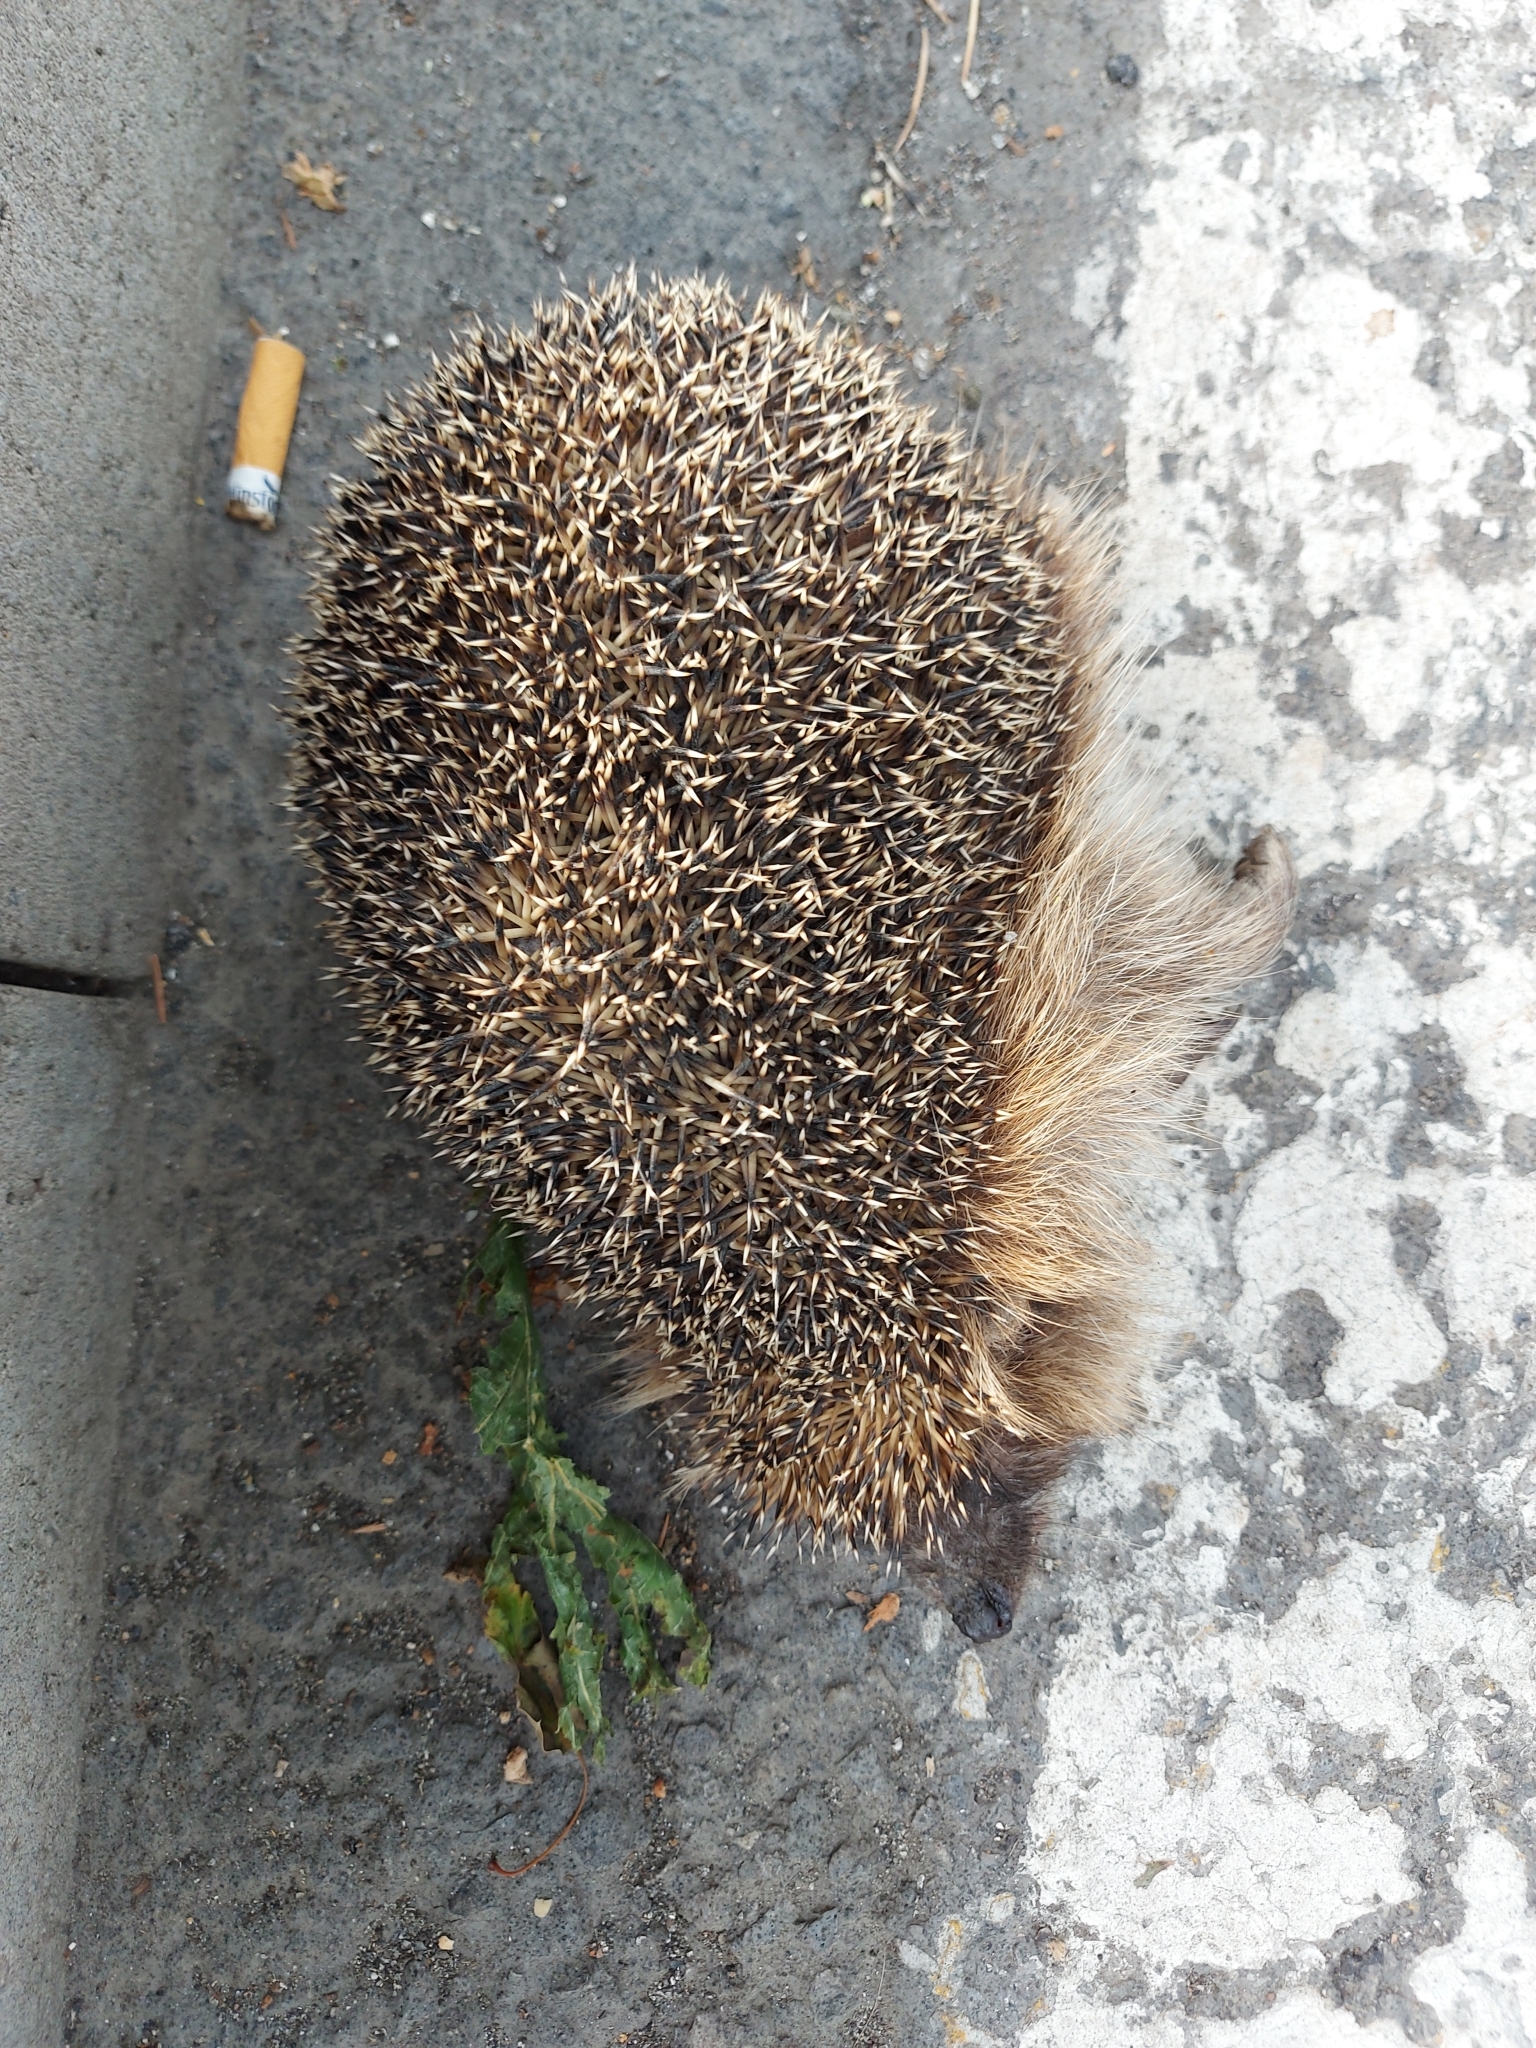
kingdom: Animalia
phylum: Chordata
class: Mammalia
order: Erinaceomorpha
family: Erinaceidae
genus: Erinaceus
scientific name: Erinaceus europaeus
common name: West european hedgehog
